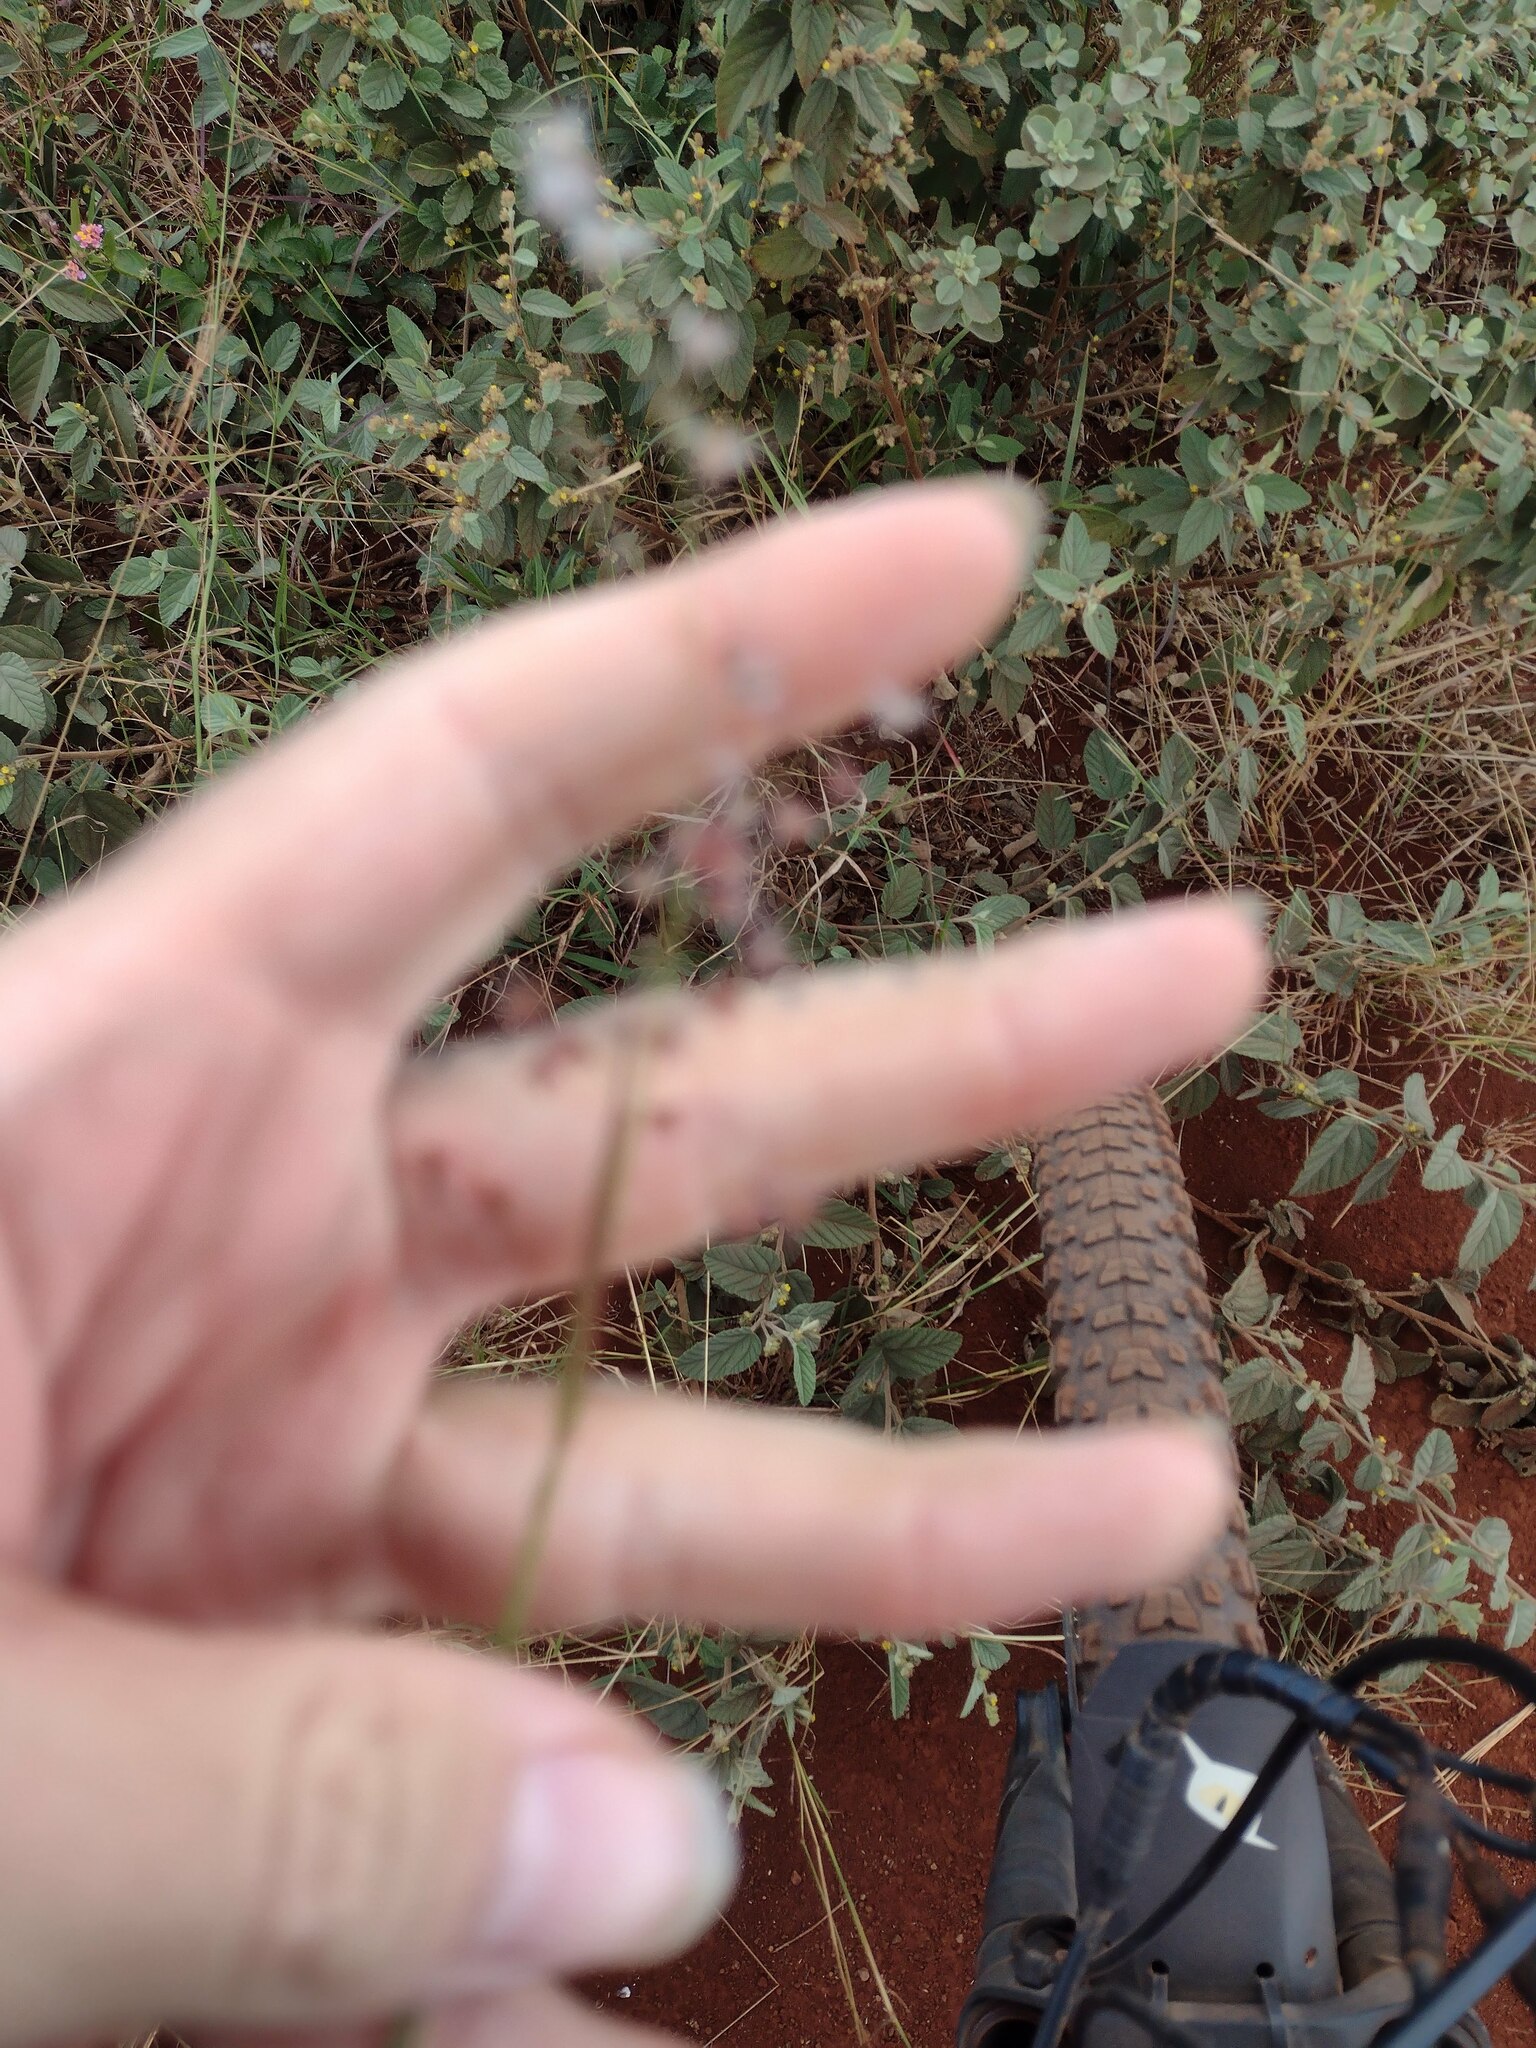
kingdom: Plantae
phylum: Tracheophyta
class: Liliopsida
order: Poales
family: Poaceae
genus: Melinis
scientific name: Melinis repens
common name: Rose natal grass
